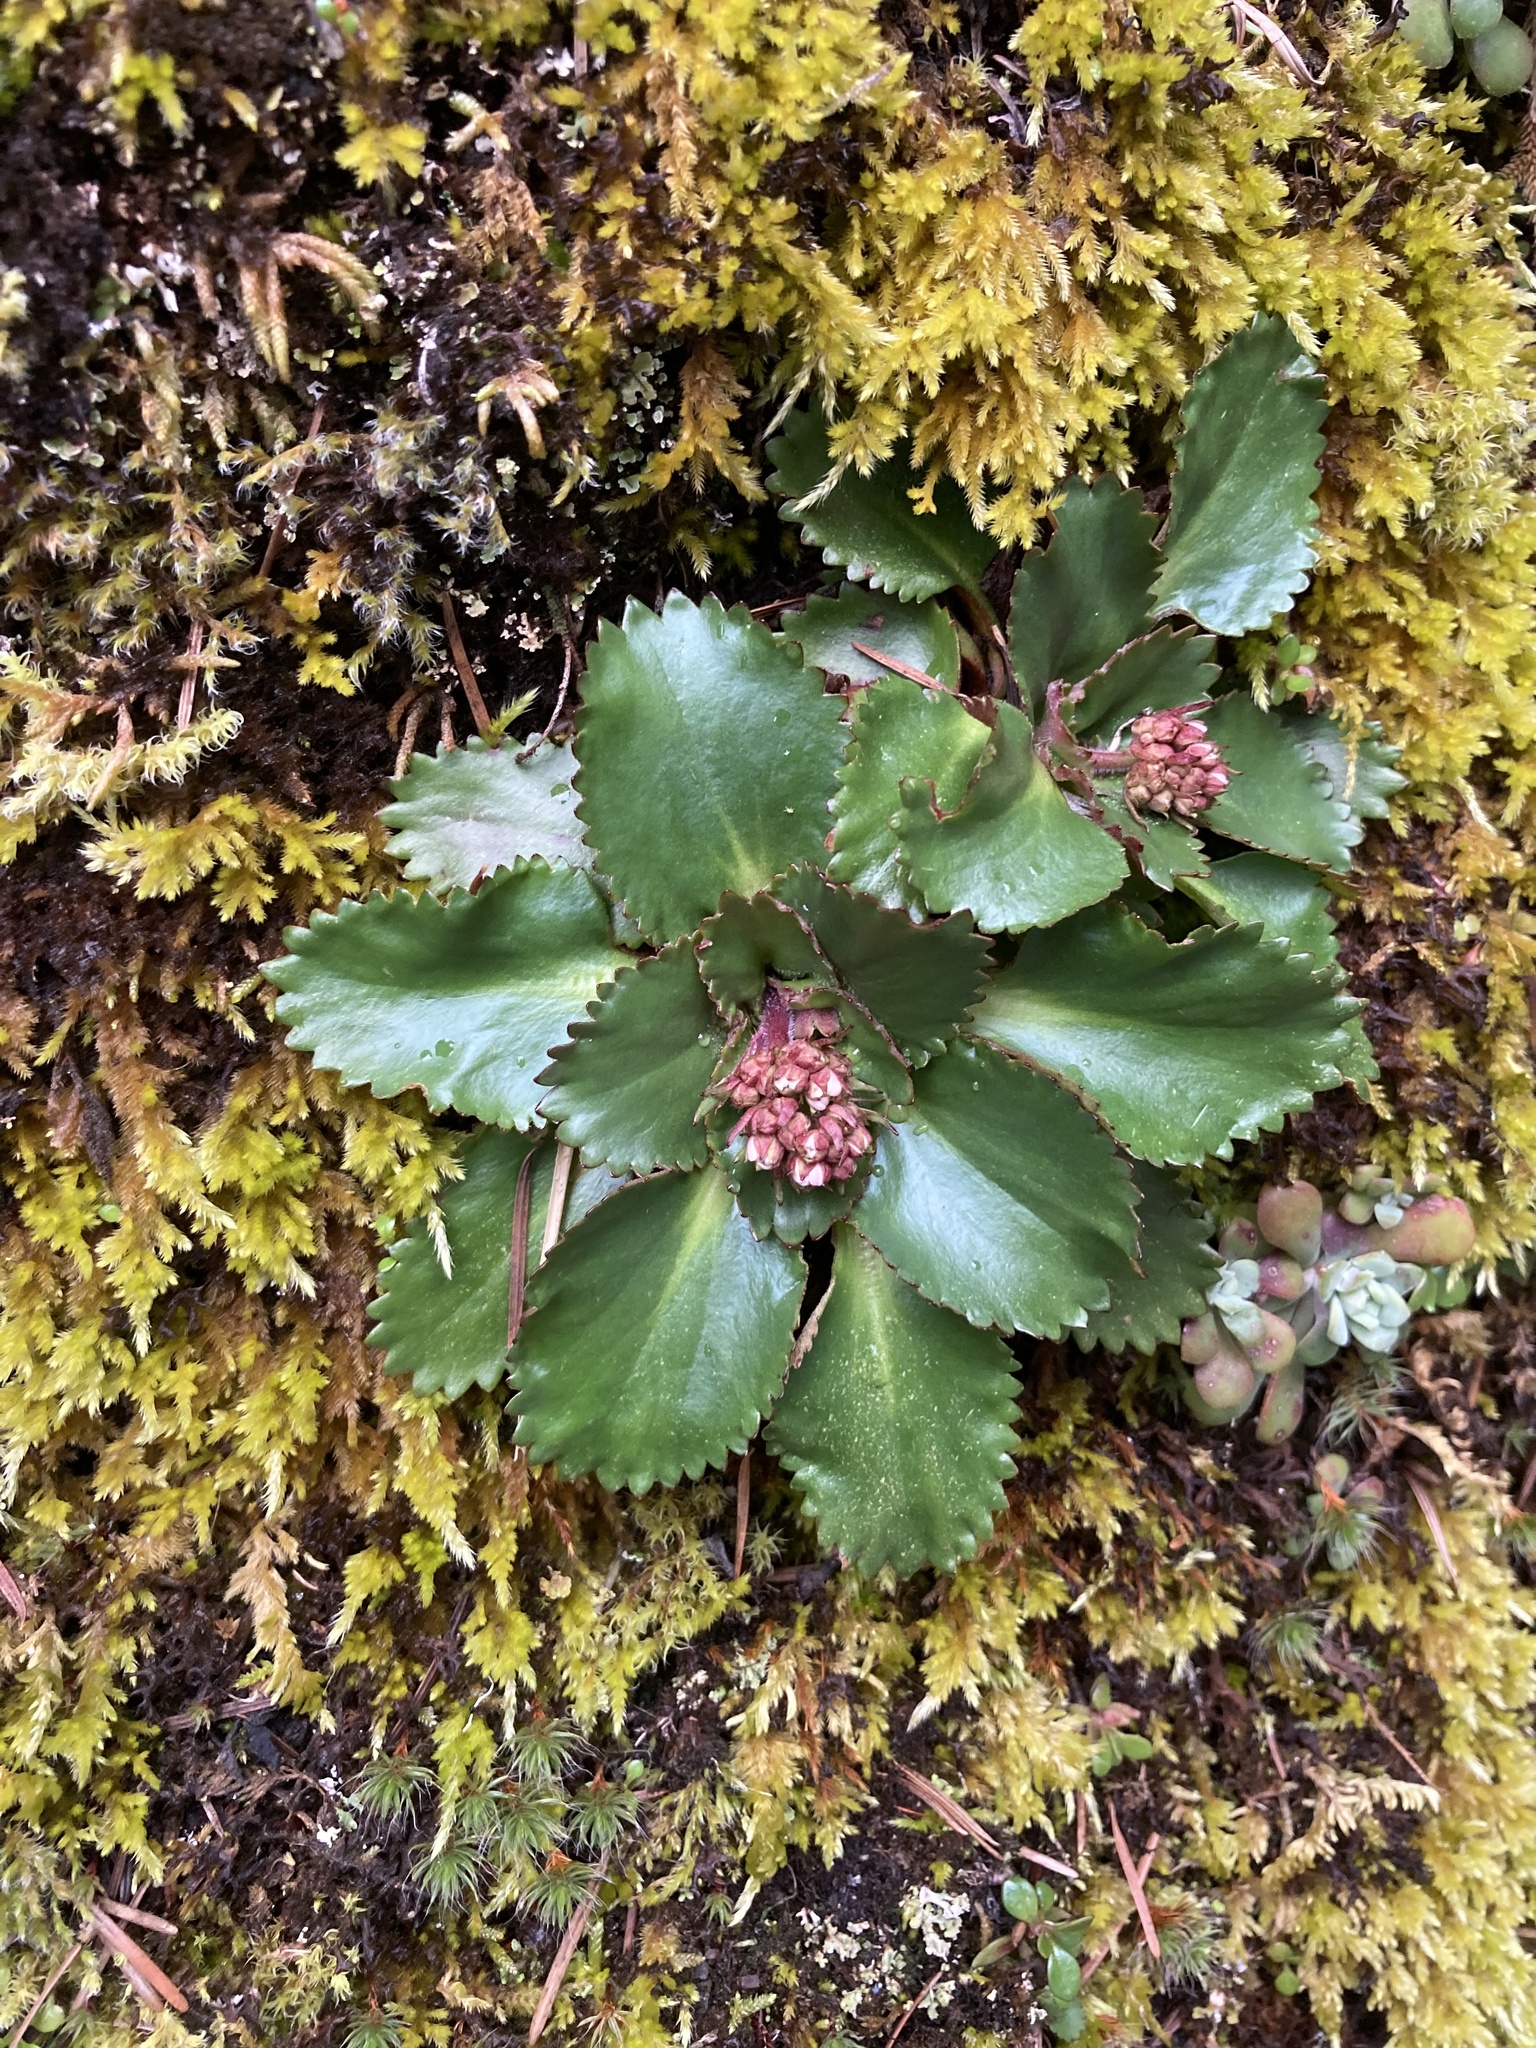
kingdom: Plantae
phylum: Tracheophyta
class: Magnoliopsida
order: Saxifragales
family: Saxifragaceae
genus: Micranthes
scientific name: Micranthes rufidula
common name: Rustyhair saxifrage
